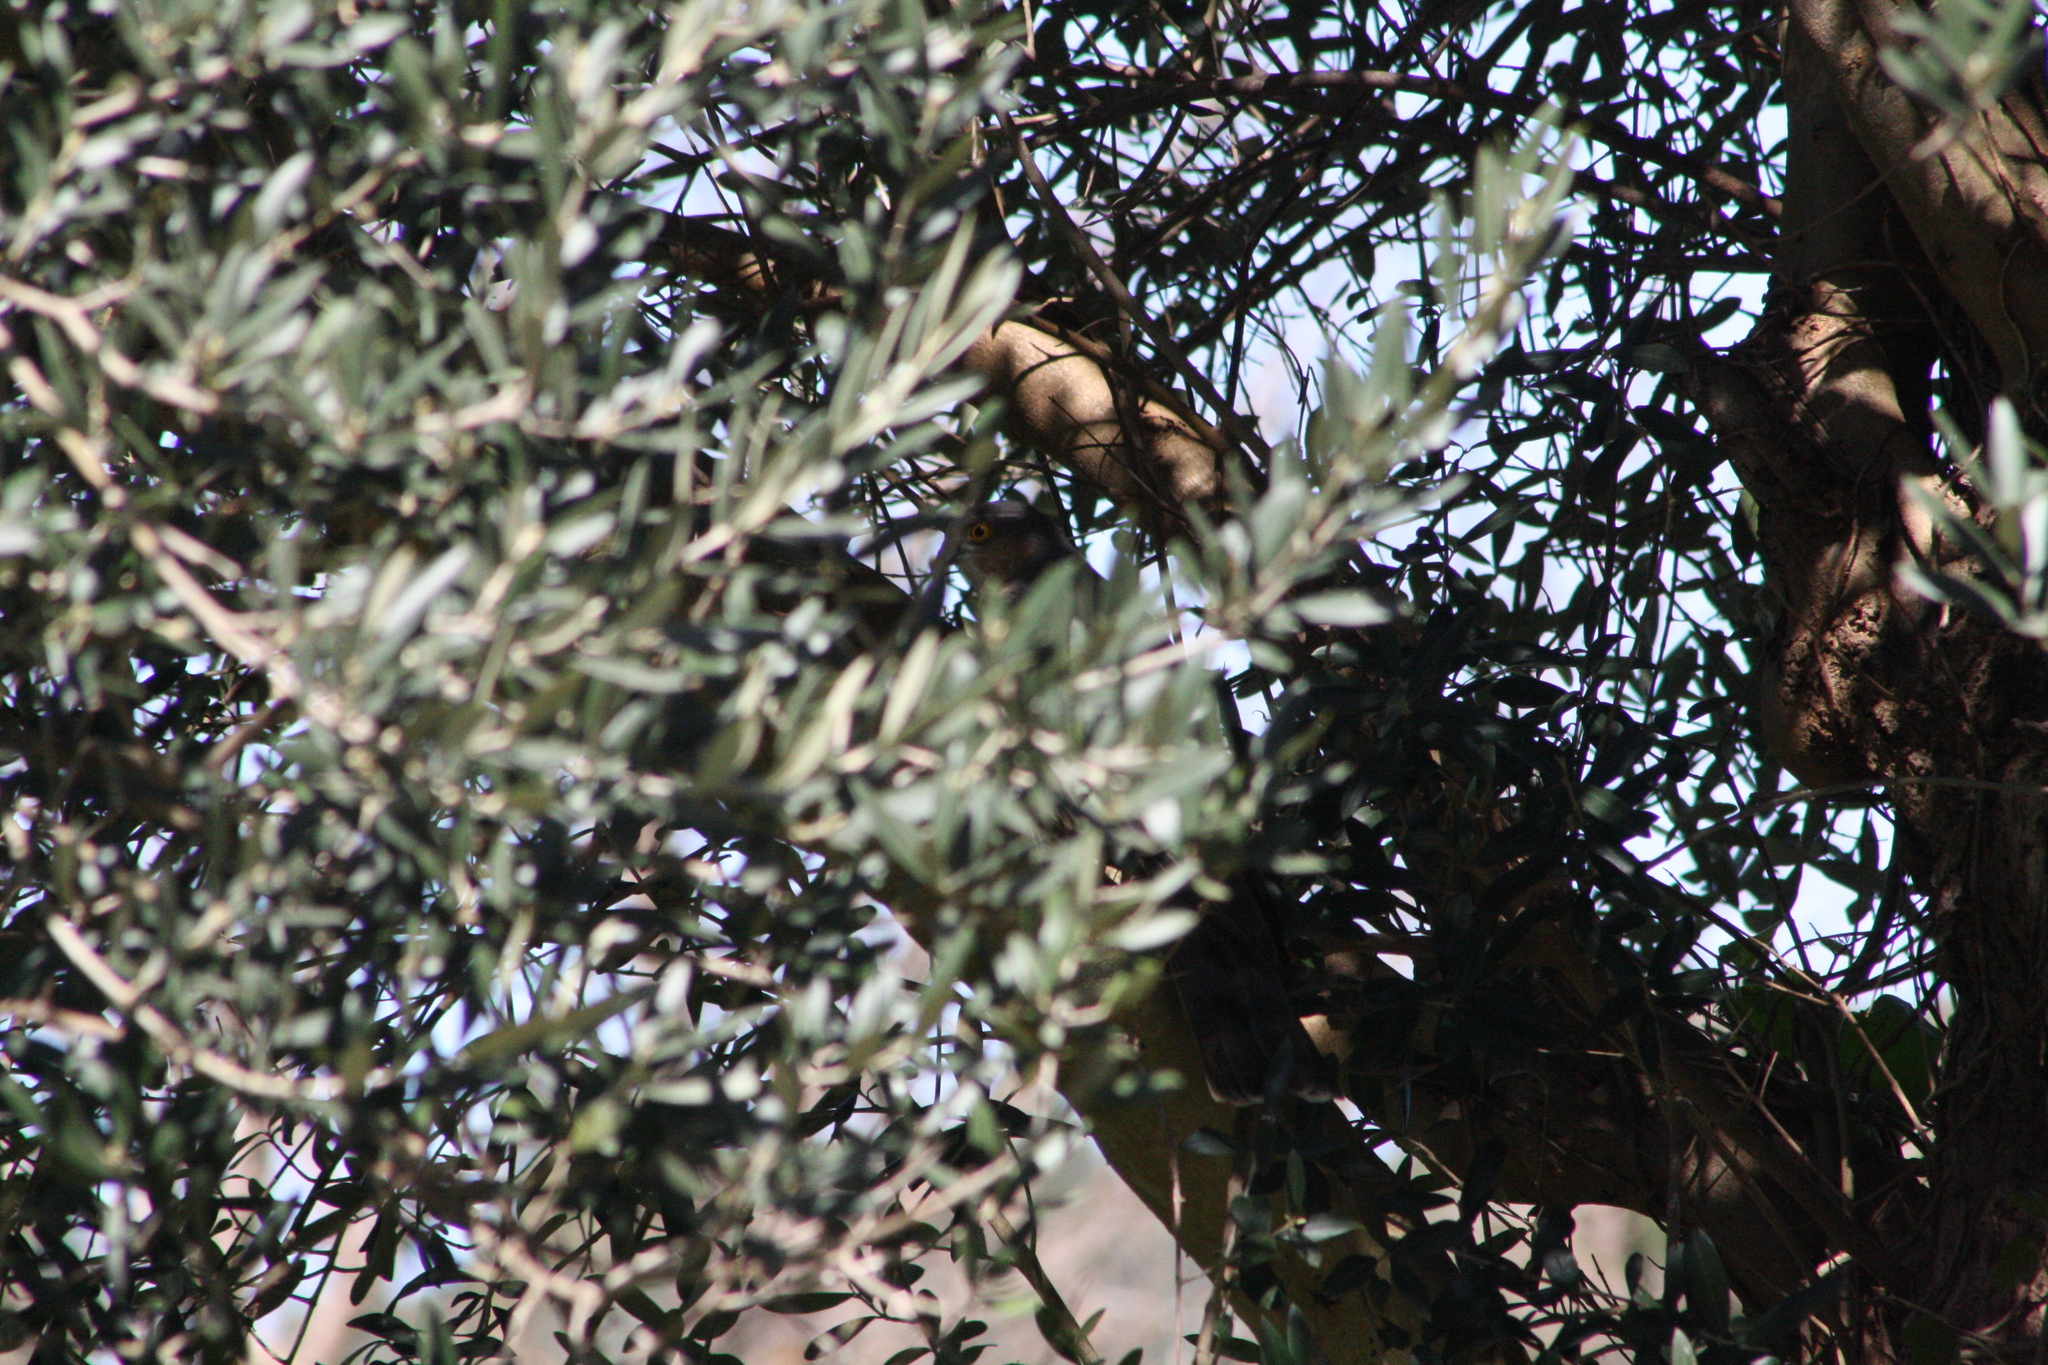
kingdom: Animalia
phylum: Chordata
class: Aves
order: Accipitriformes
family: Accipitridae
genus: Accipiter
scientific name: Accipiter nisus
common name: Eurasian sparrowhawk
